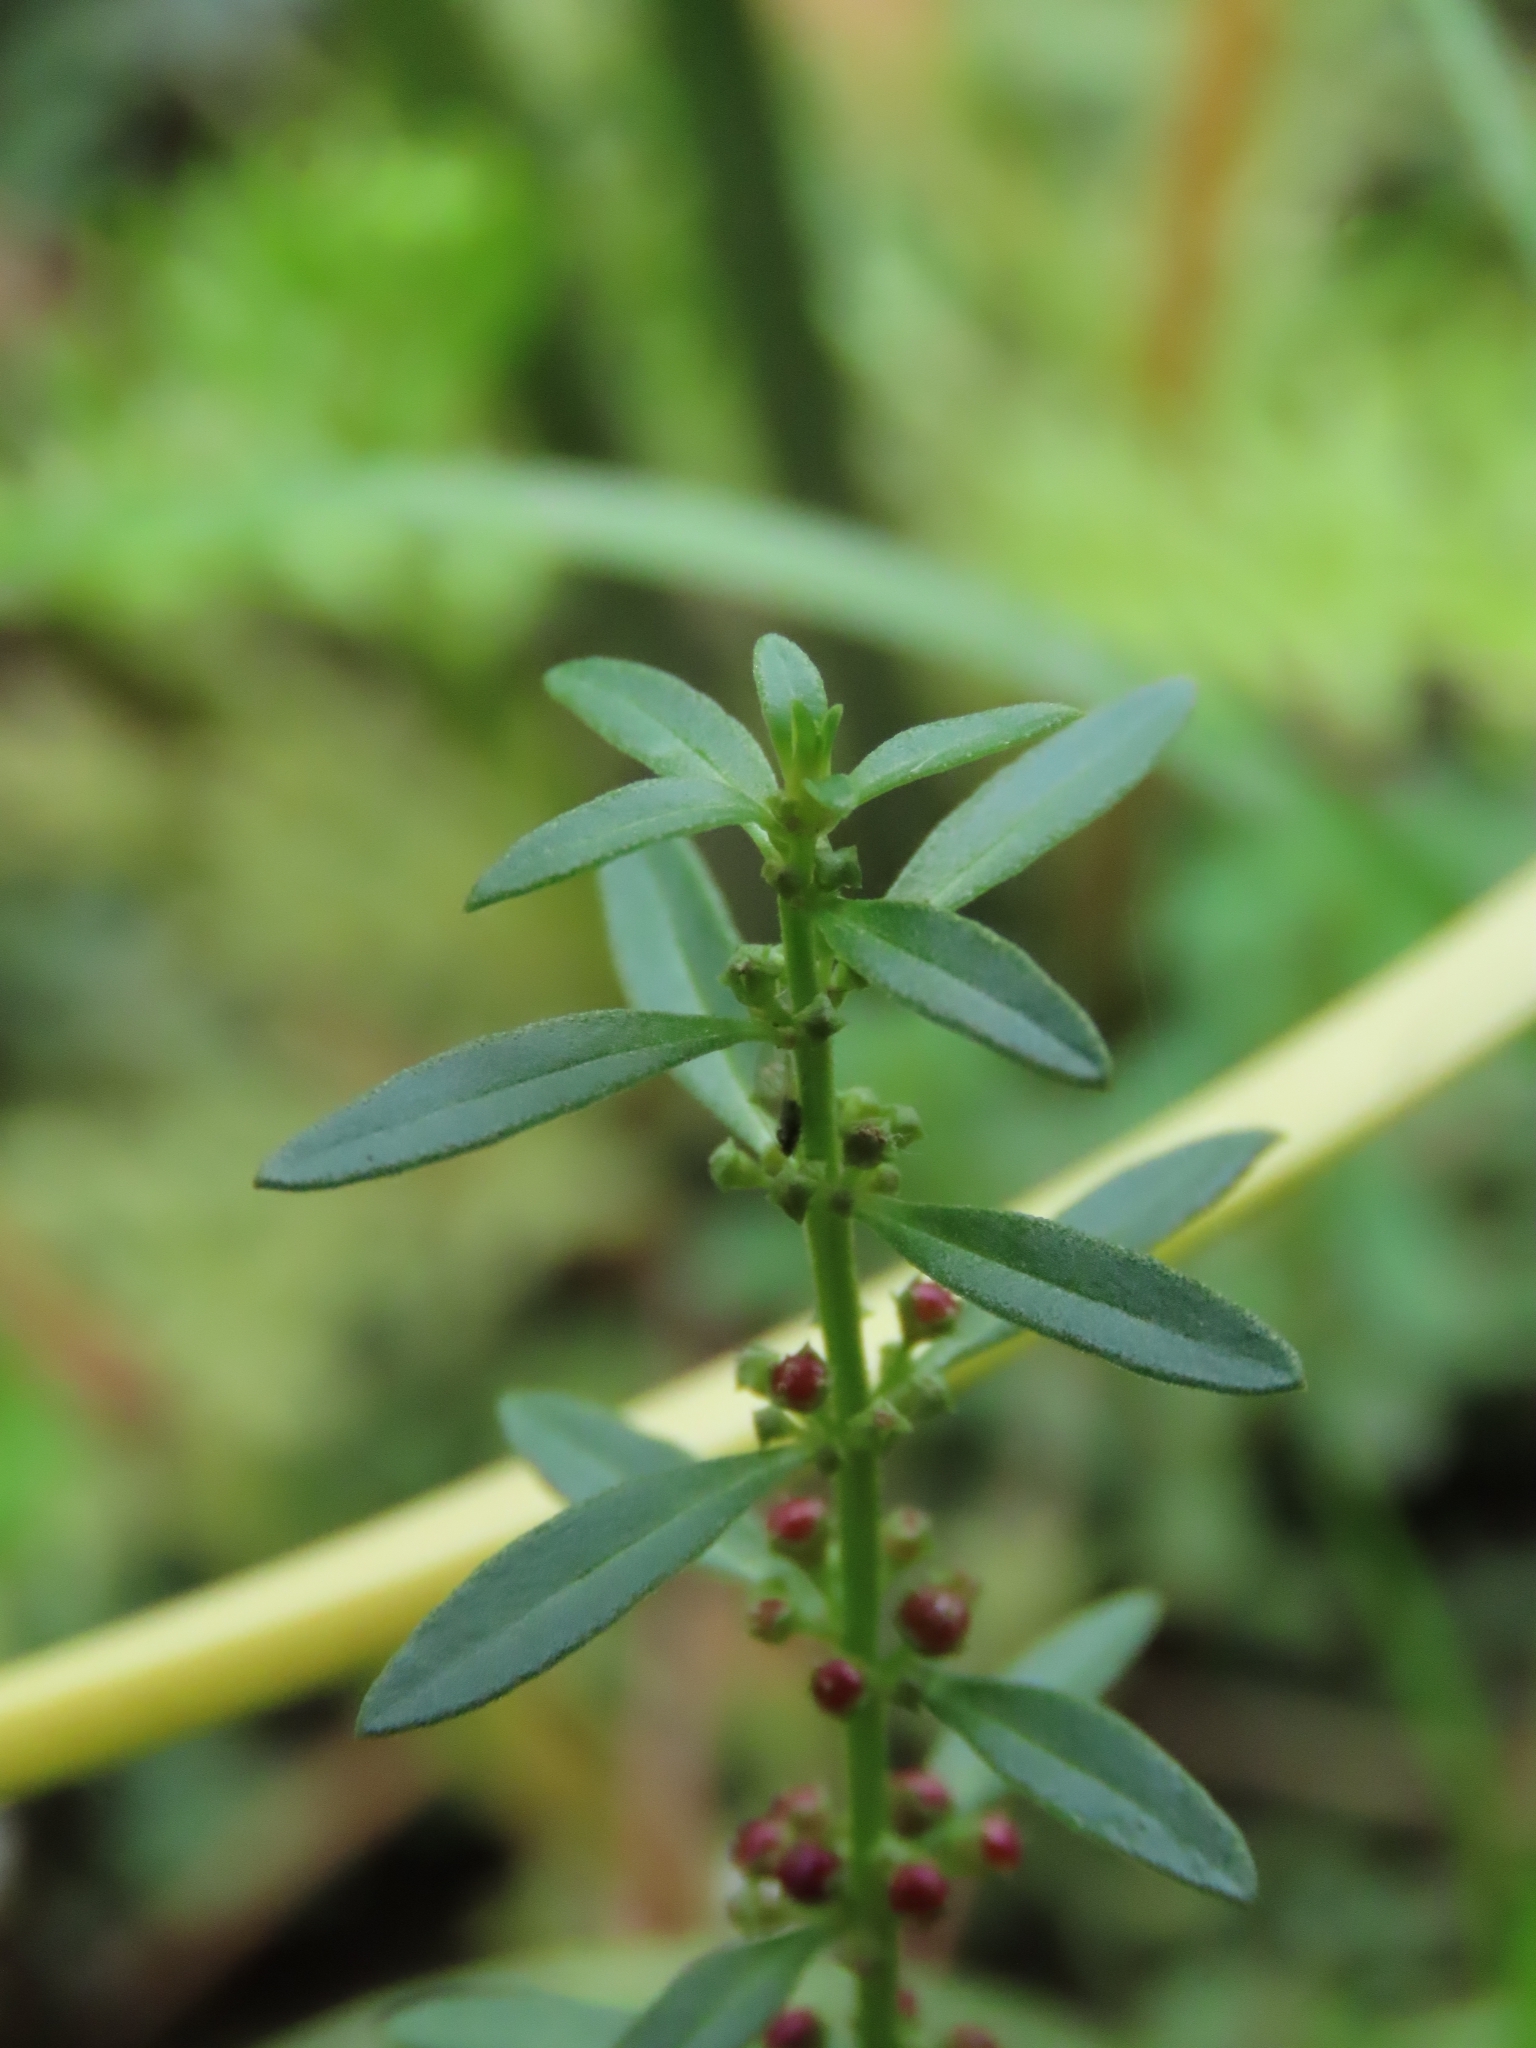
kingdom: Plantae
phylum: Tracheophyta
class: Magnoliopsida
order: Myrtales
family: Lythraceae
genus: Ammannia
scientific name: Ammannia baccifera
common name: Blistering ammania
